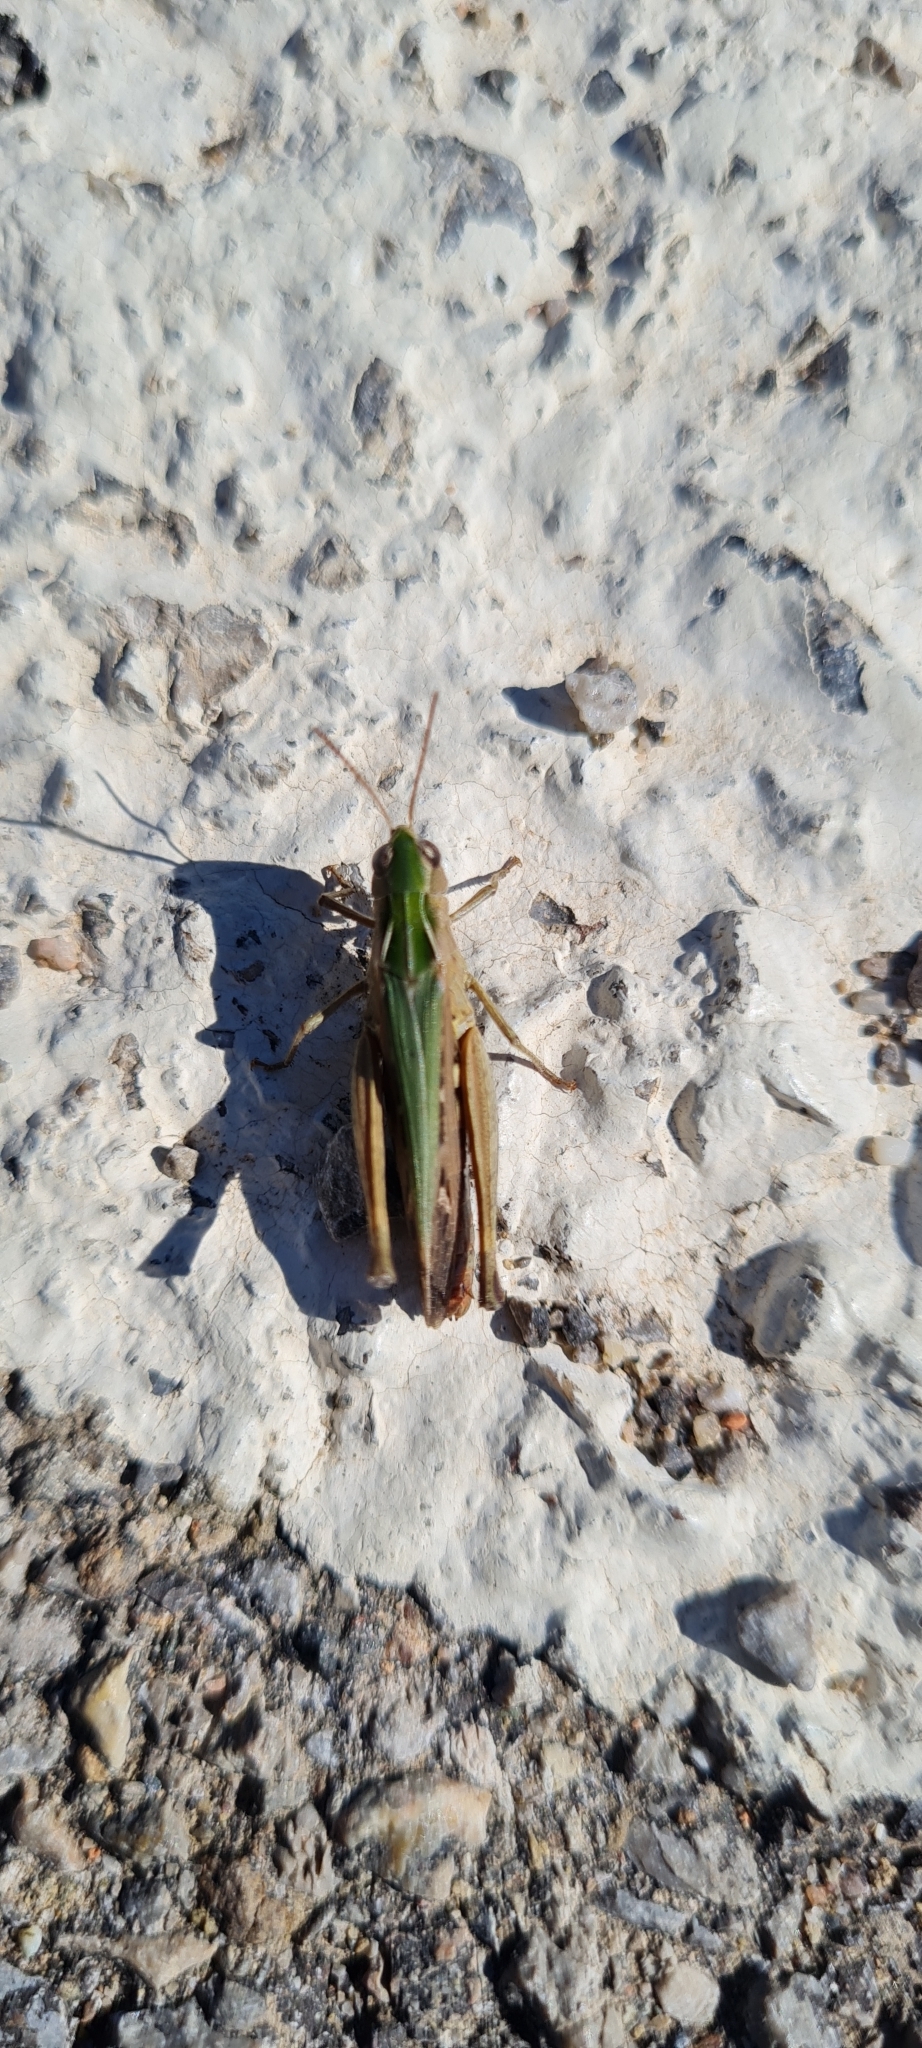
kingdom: Animalia
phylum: Arthropoda
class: Insecta
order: Orthoptera
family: Acrididae
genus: Omocestus
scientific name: Omocestus rufipes
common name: Woodland grasshopper
